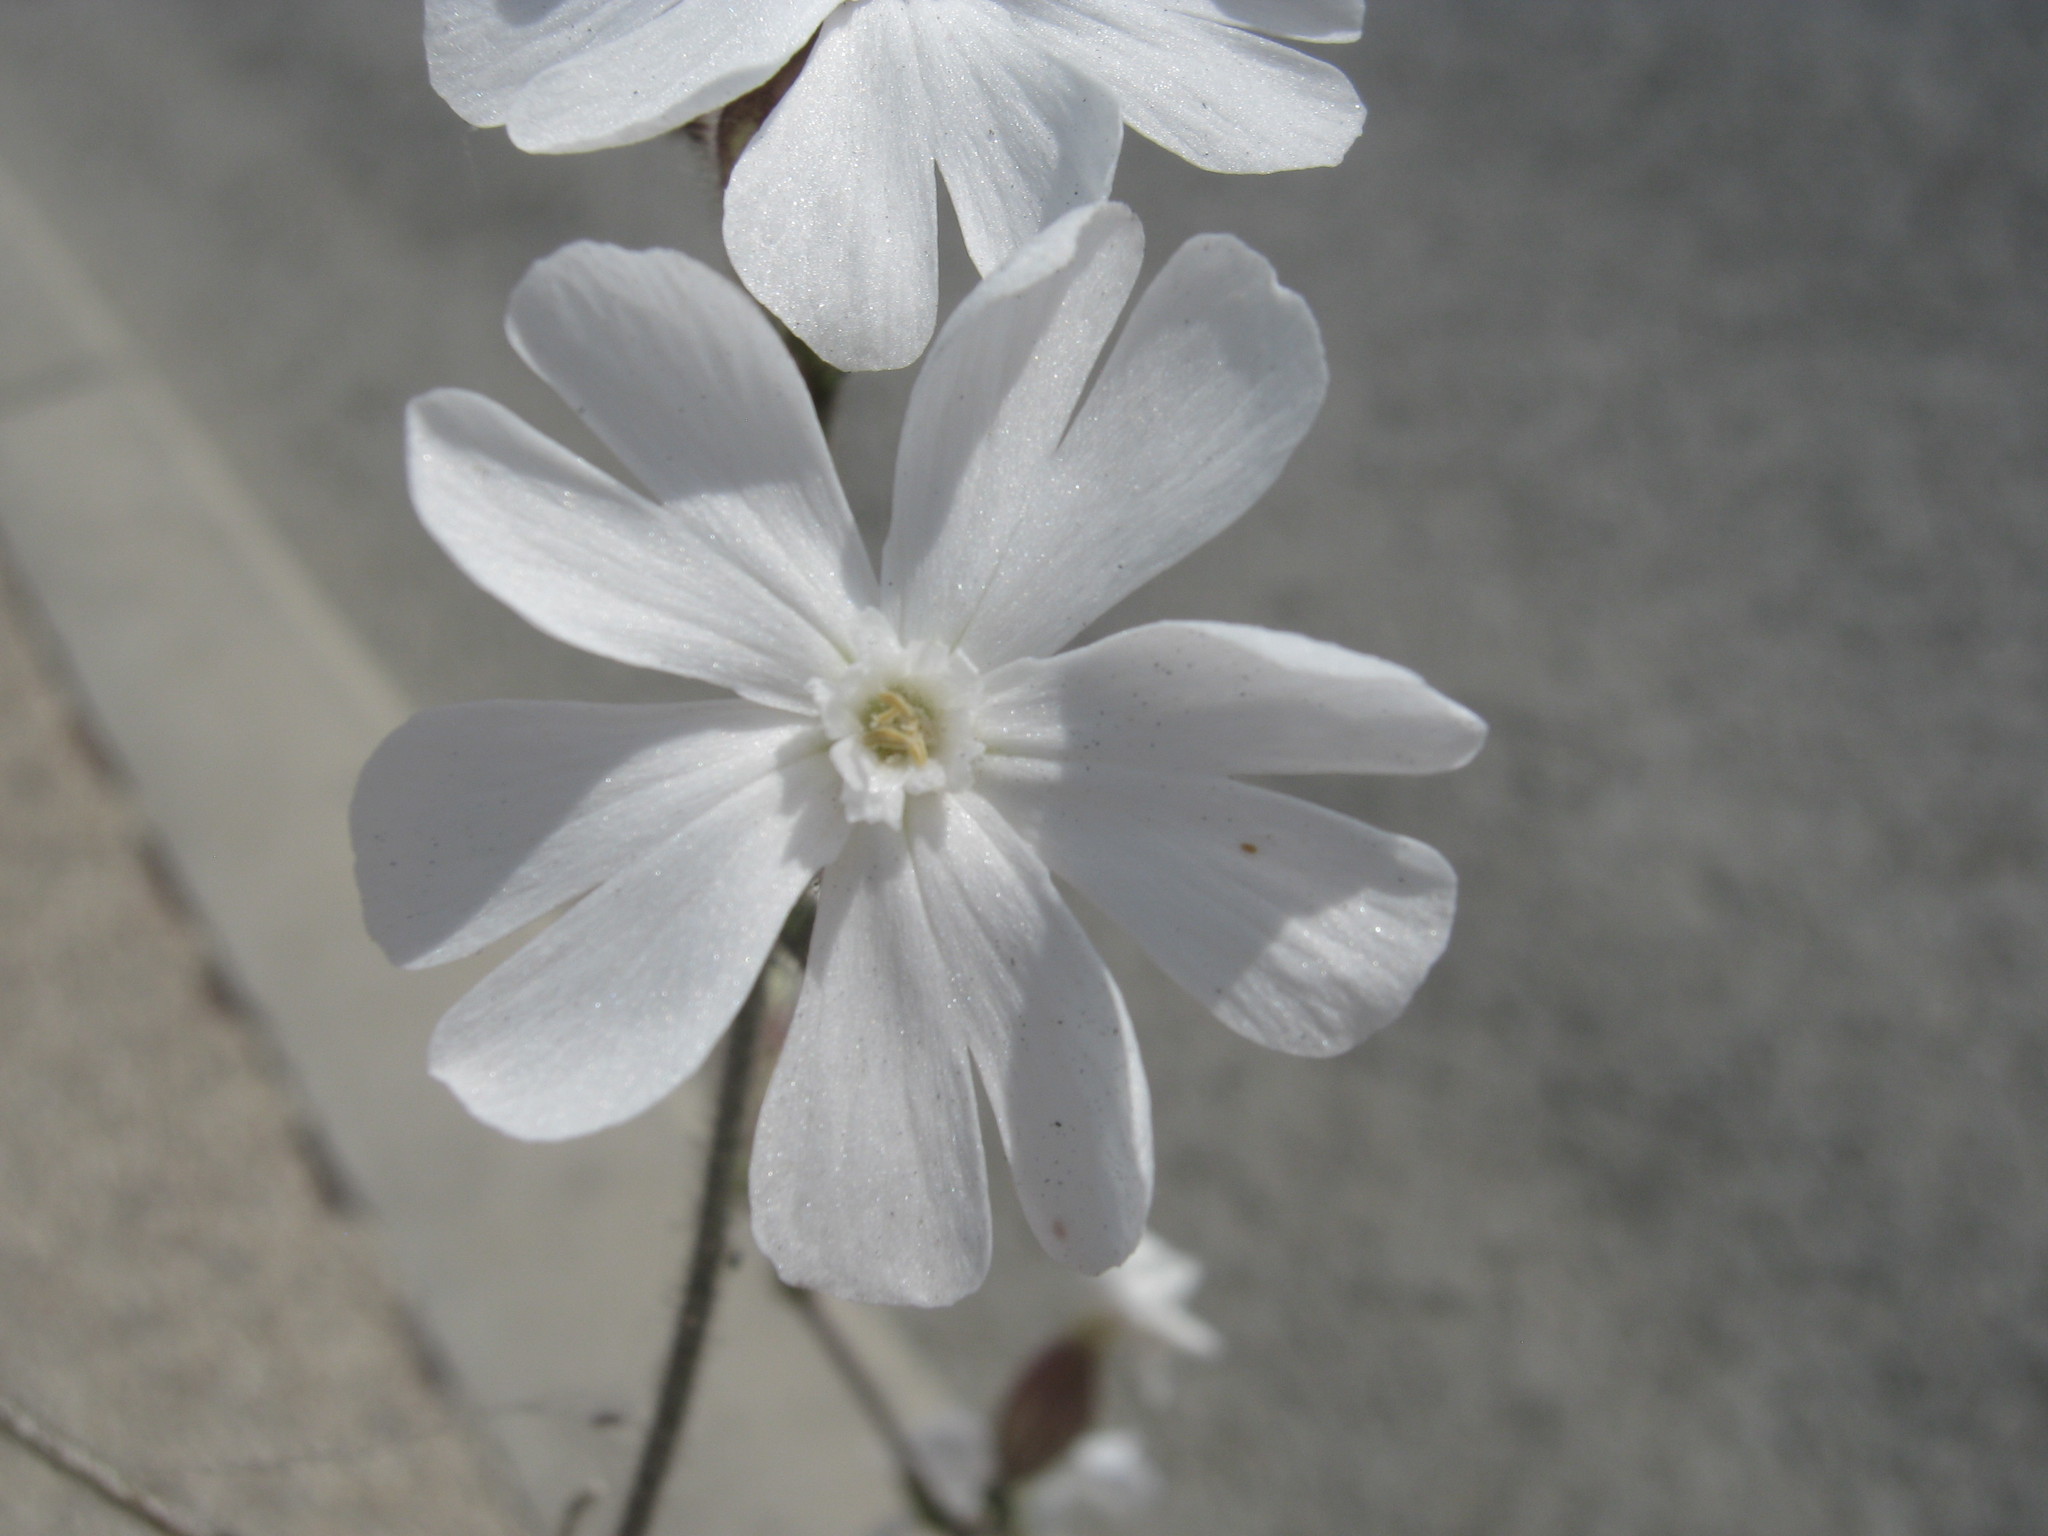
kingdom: Plantae
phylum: Tracheophyta
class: Magnoliopsida
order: Caryophyllales
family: Caryophyllaceae
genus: Silene
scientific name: Silene latifolia
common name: White campion
